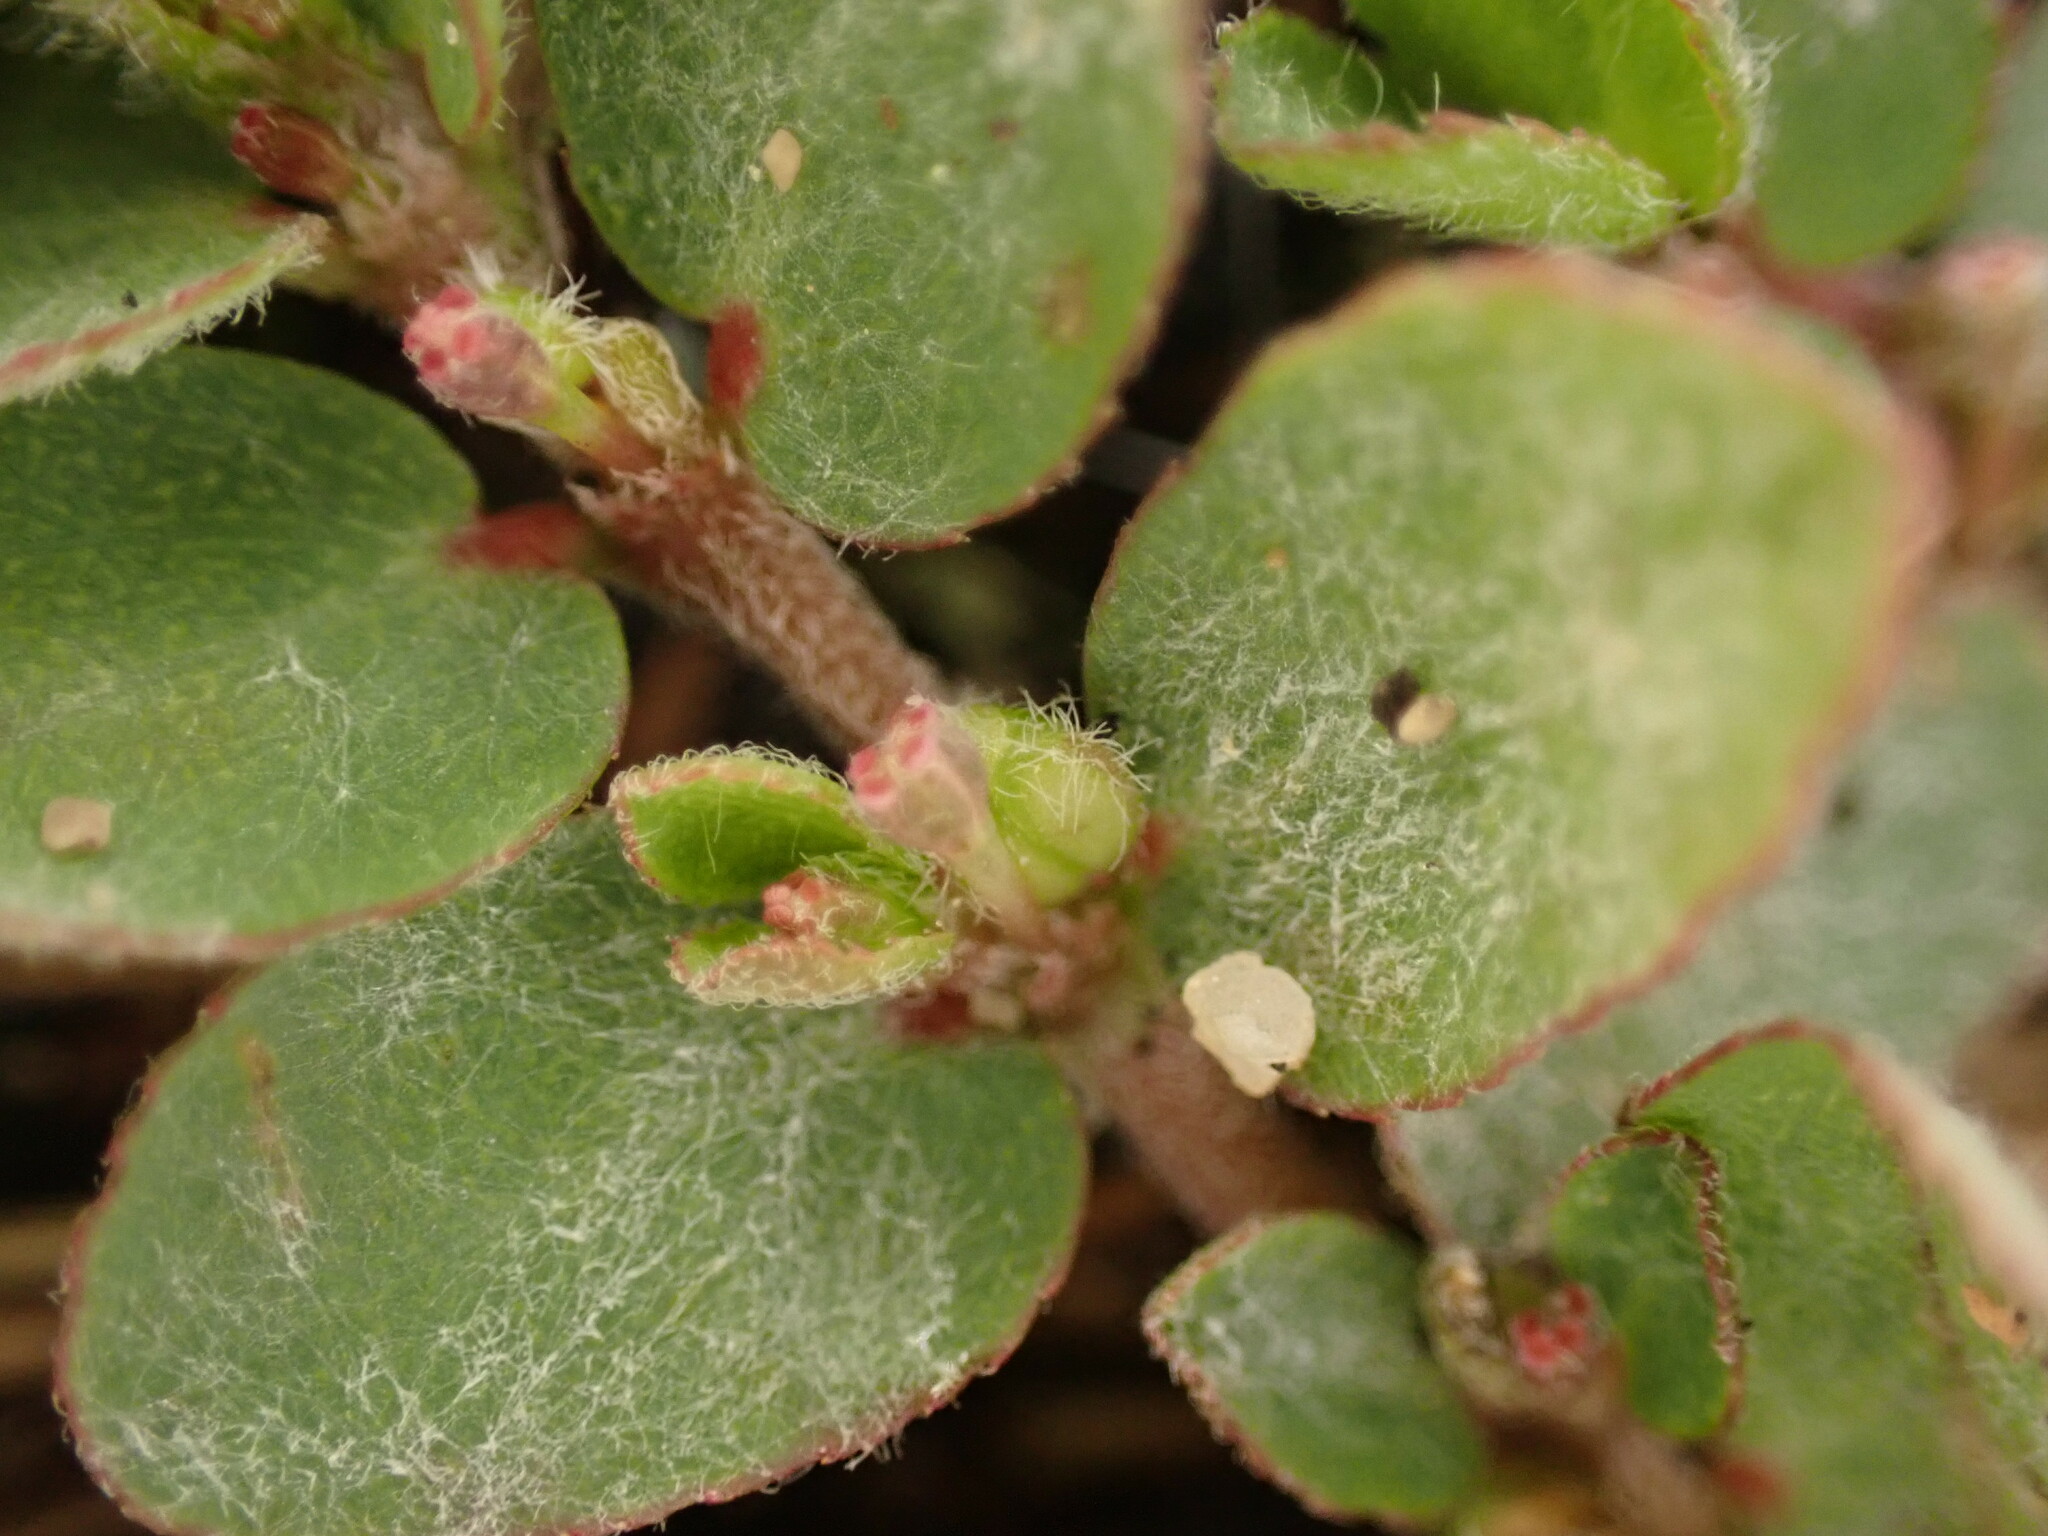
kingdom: Plantae
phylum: Tracheophyta
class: Magnoliopsida
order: Malpighiales
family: Euphorbiaceae
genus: Euphorbia
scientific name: Euphorbia prostrata
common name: Prostrate sandmat
